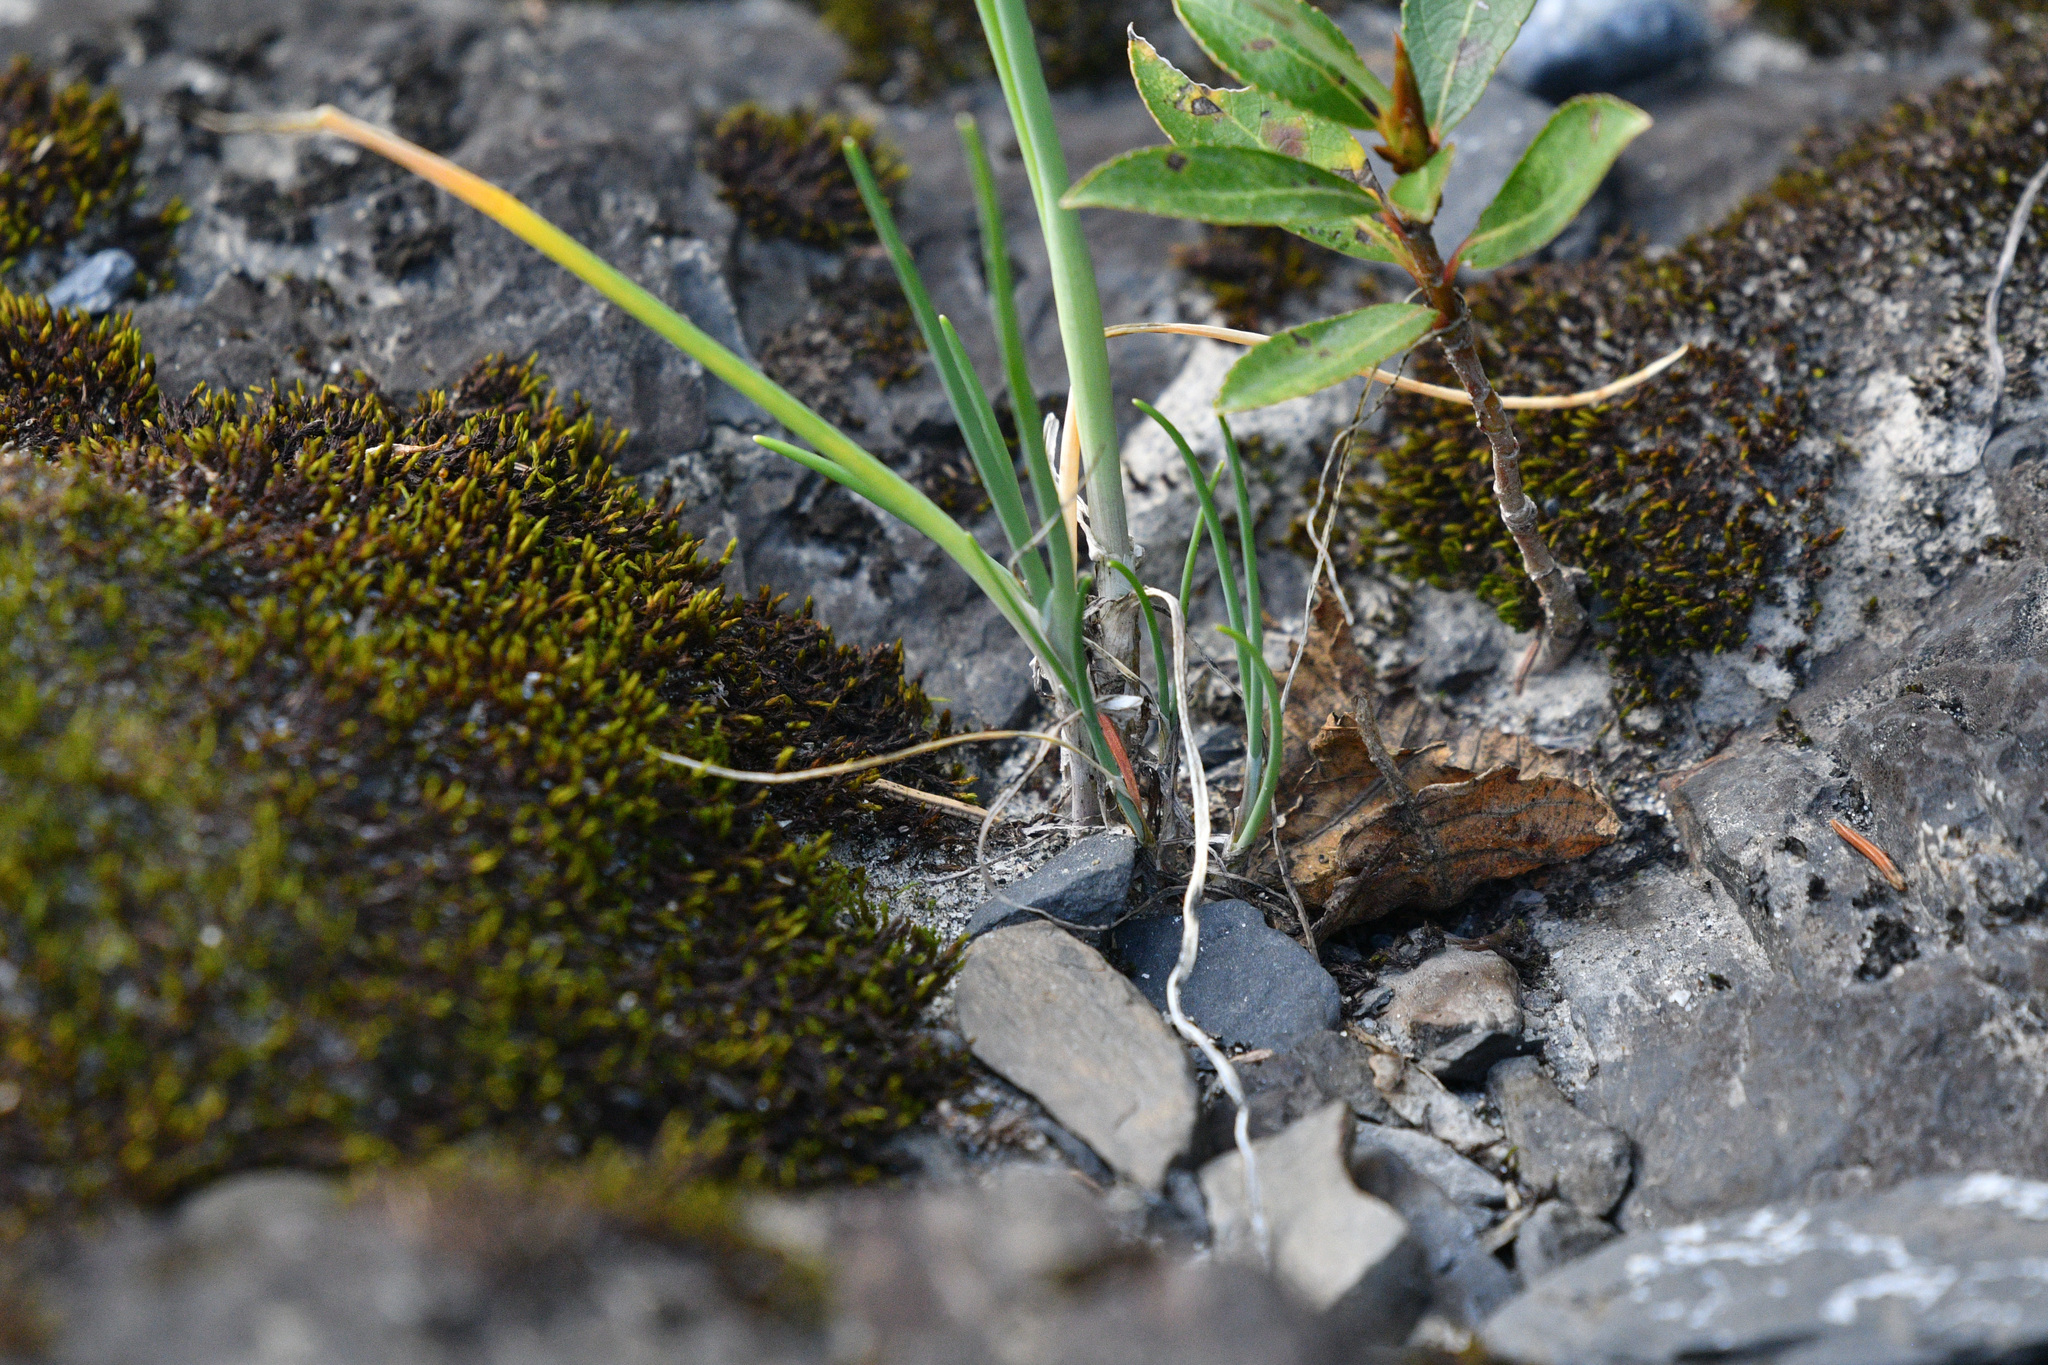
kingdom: Plantae
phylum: Tracheophyta
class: Liliopsida
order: Asparagales
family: Amaryllidaceae
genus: Allium
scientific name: Allium schoenoprasum
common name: Chives
